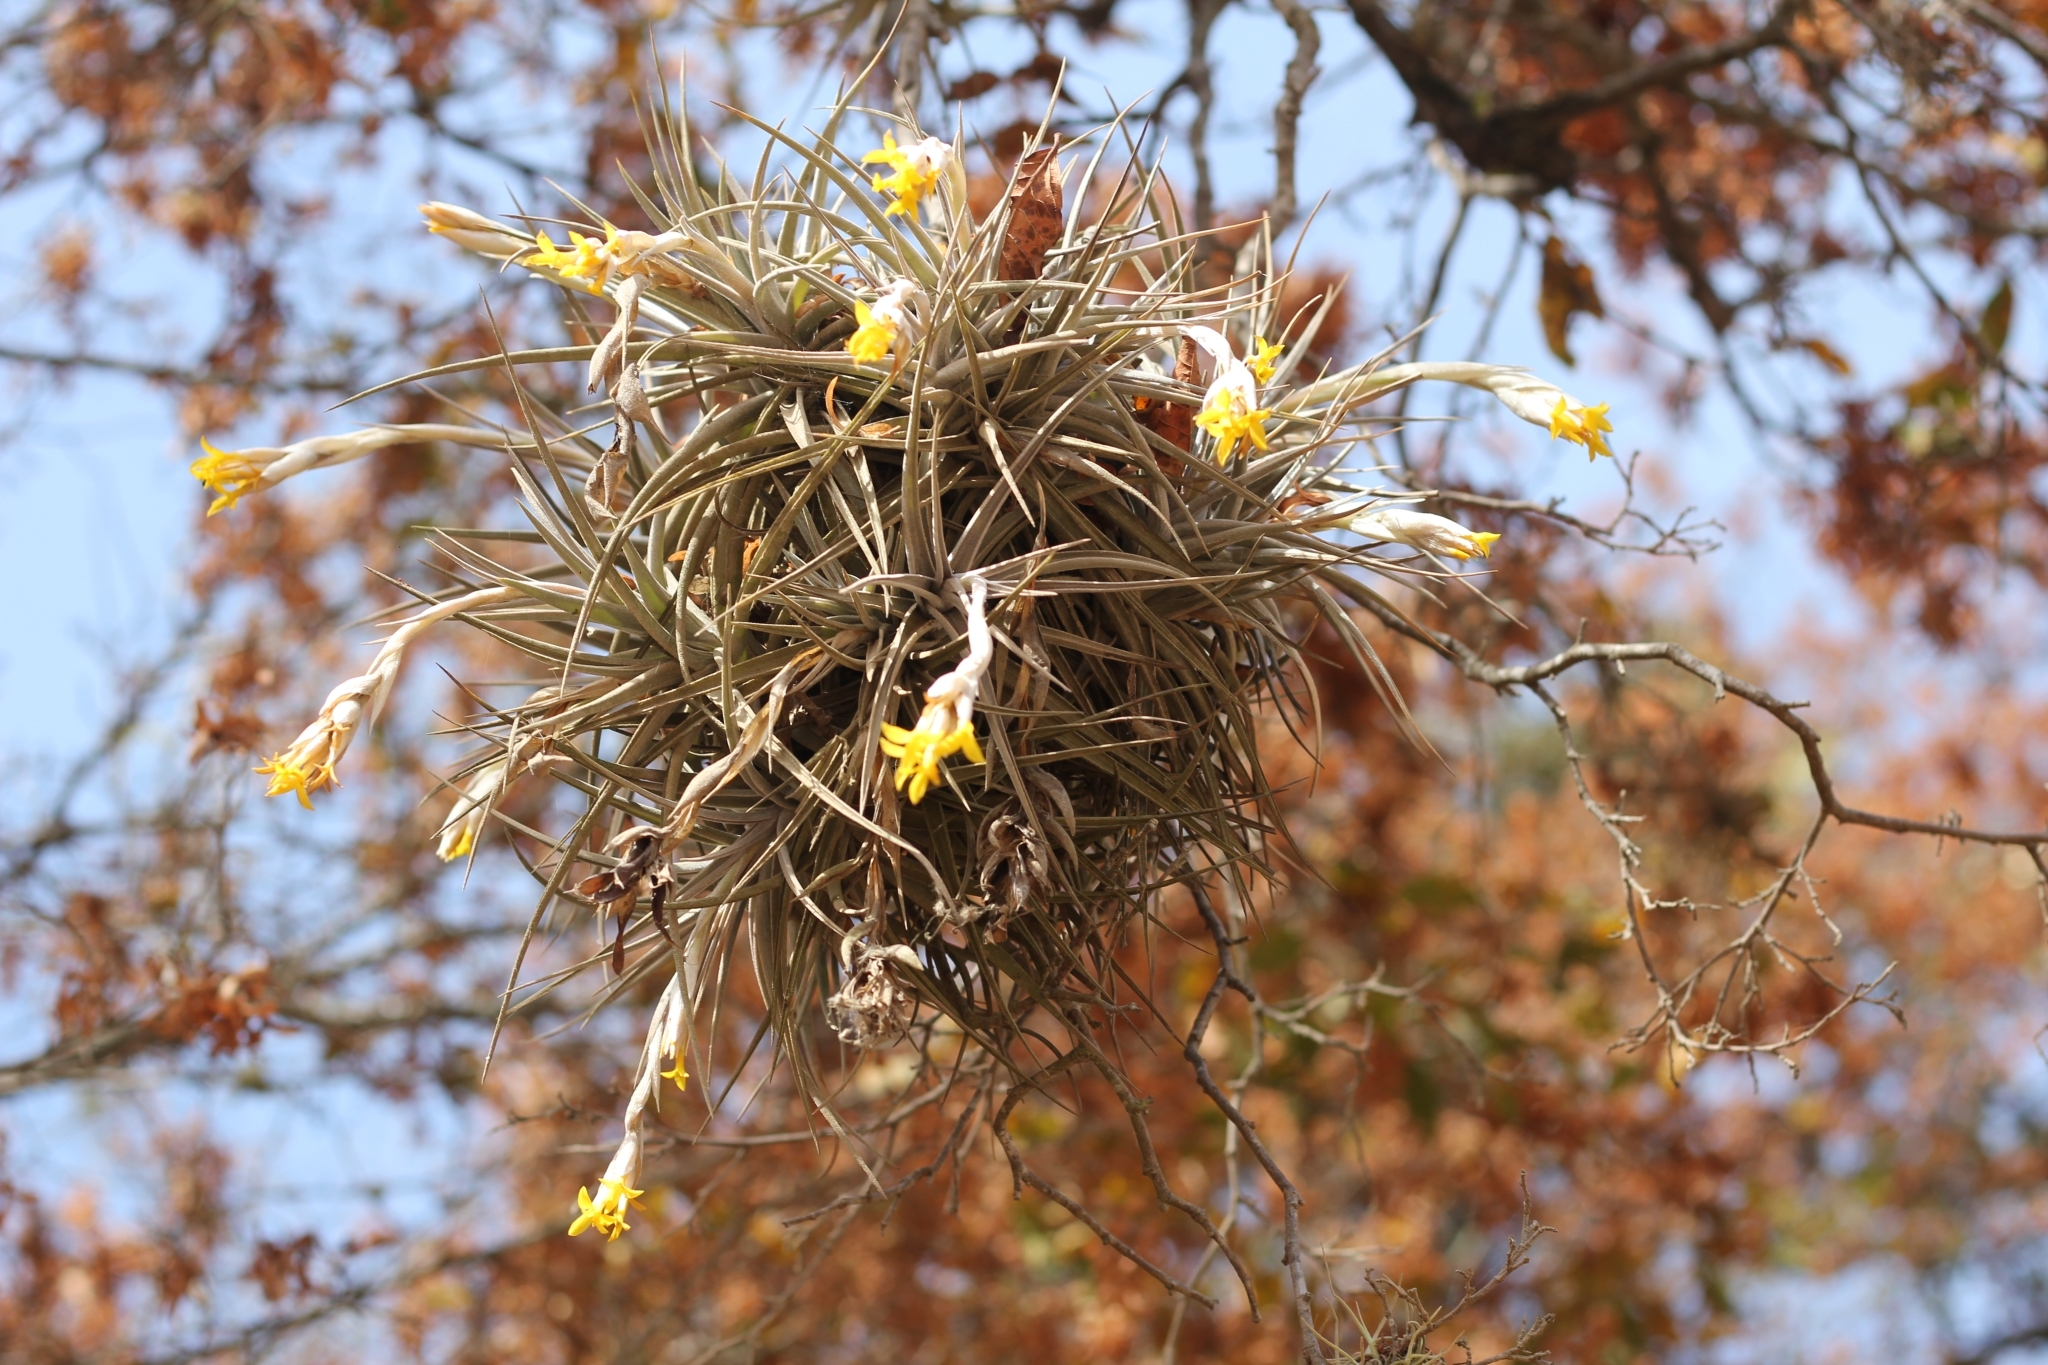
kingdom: Plantae
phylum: Tracheophyta
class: Liliopsida
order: Poales
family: Bromeliaceae
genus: Tillandsia
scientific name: Tillandsia ixioides
